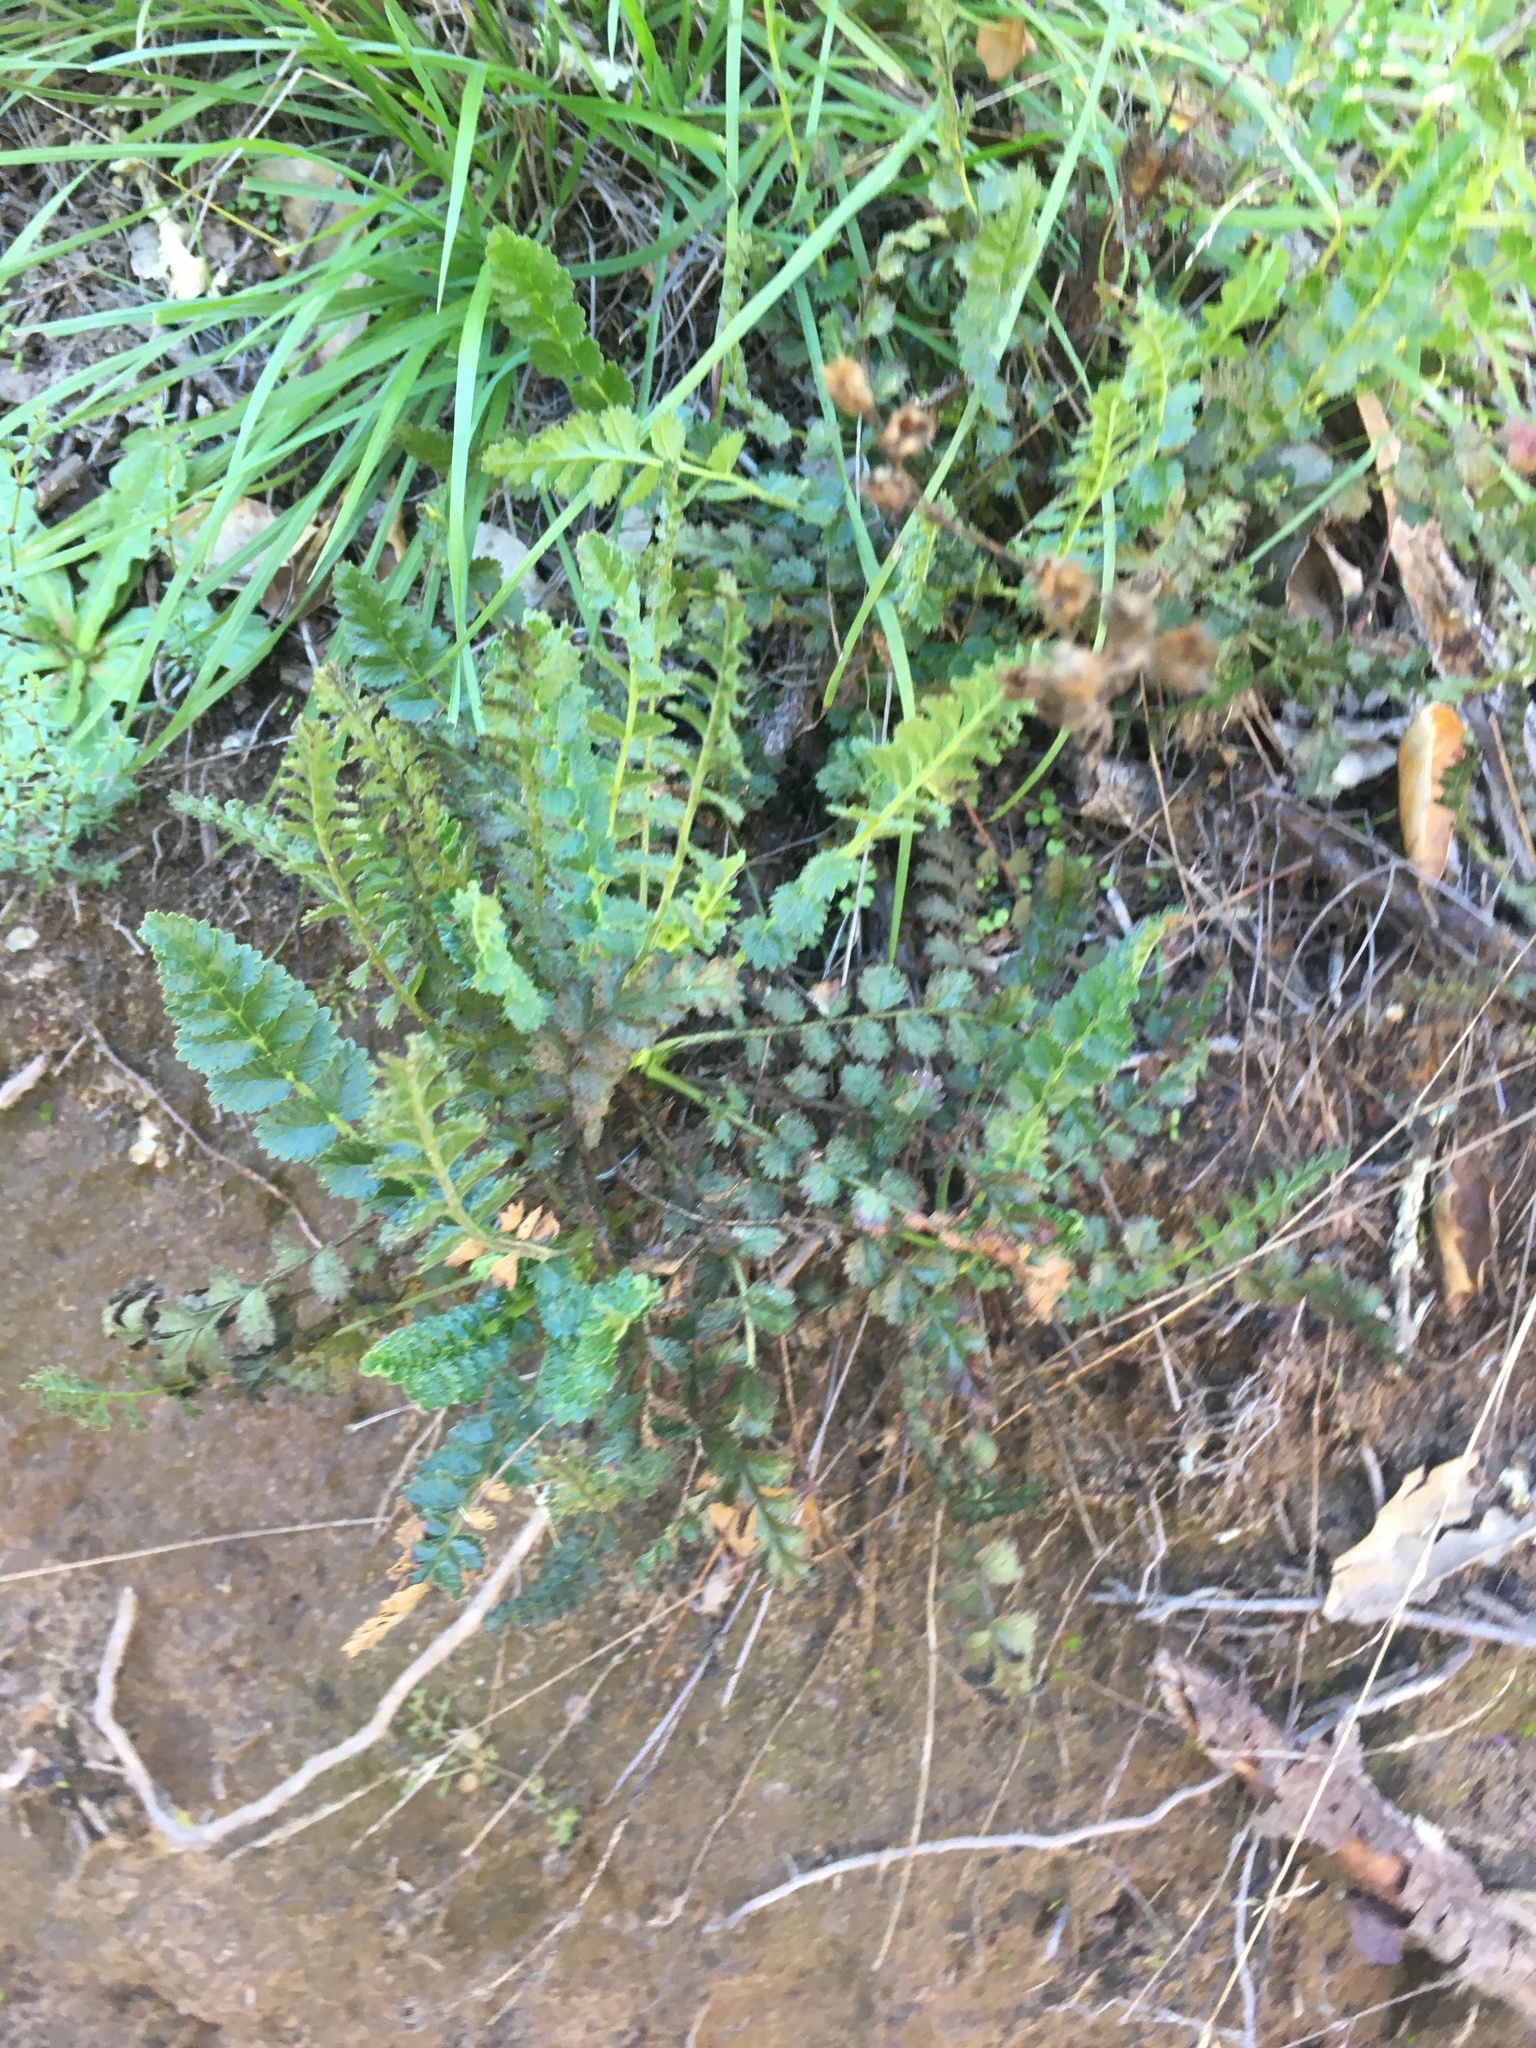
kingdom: Plantae
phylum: Tracheophyta
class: Magnoliopsida
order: Rosales
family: Rosaceae
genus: Potentilla
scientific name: Potentilla
